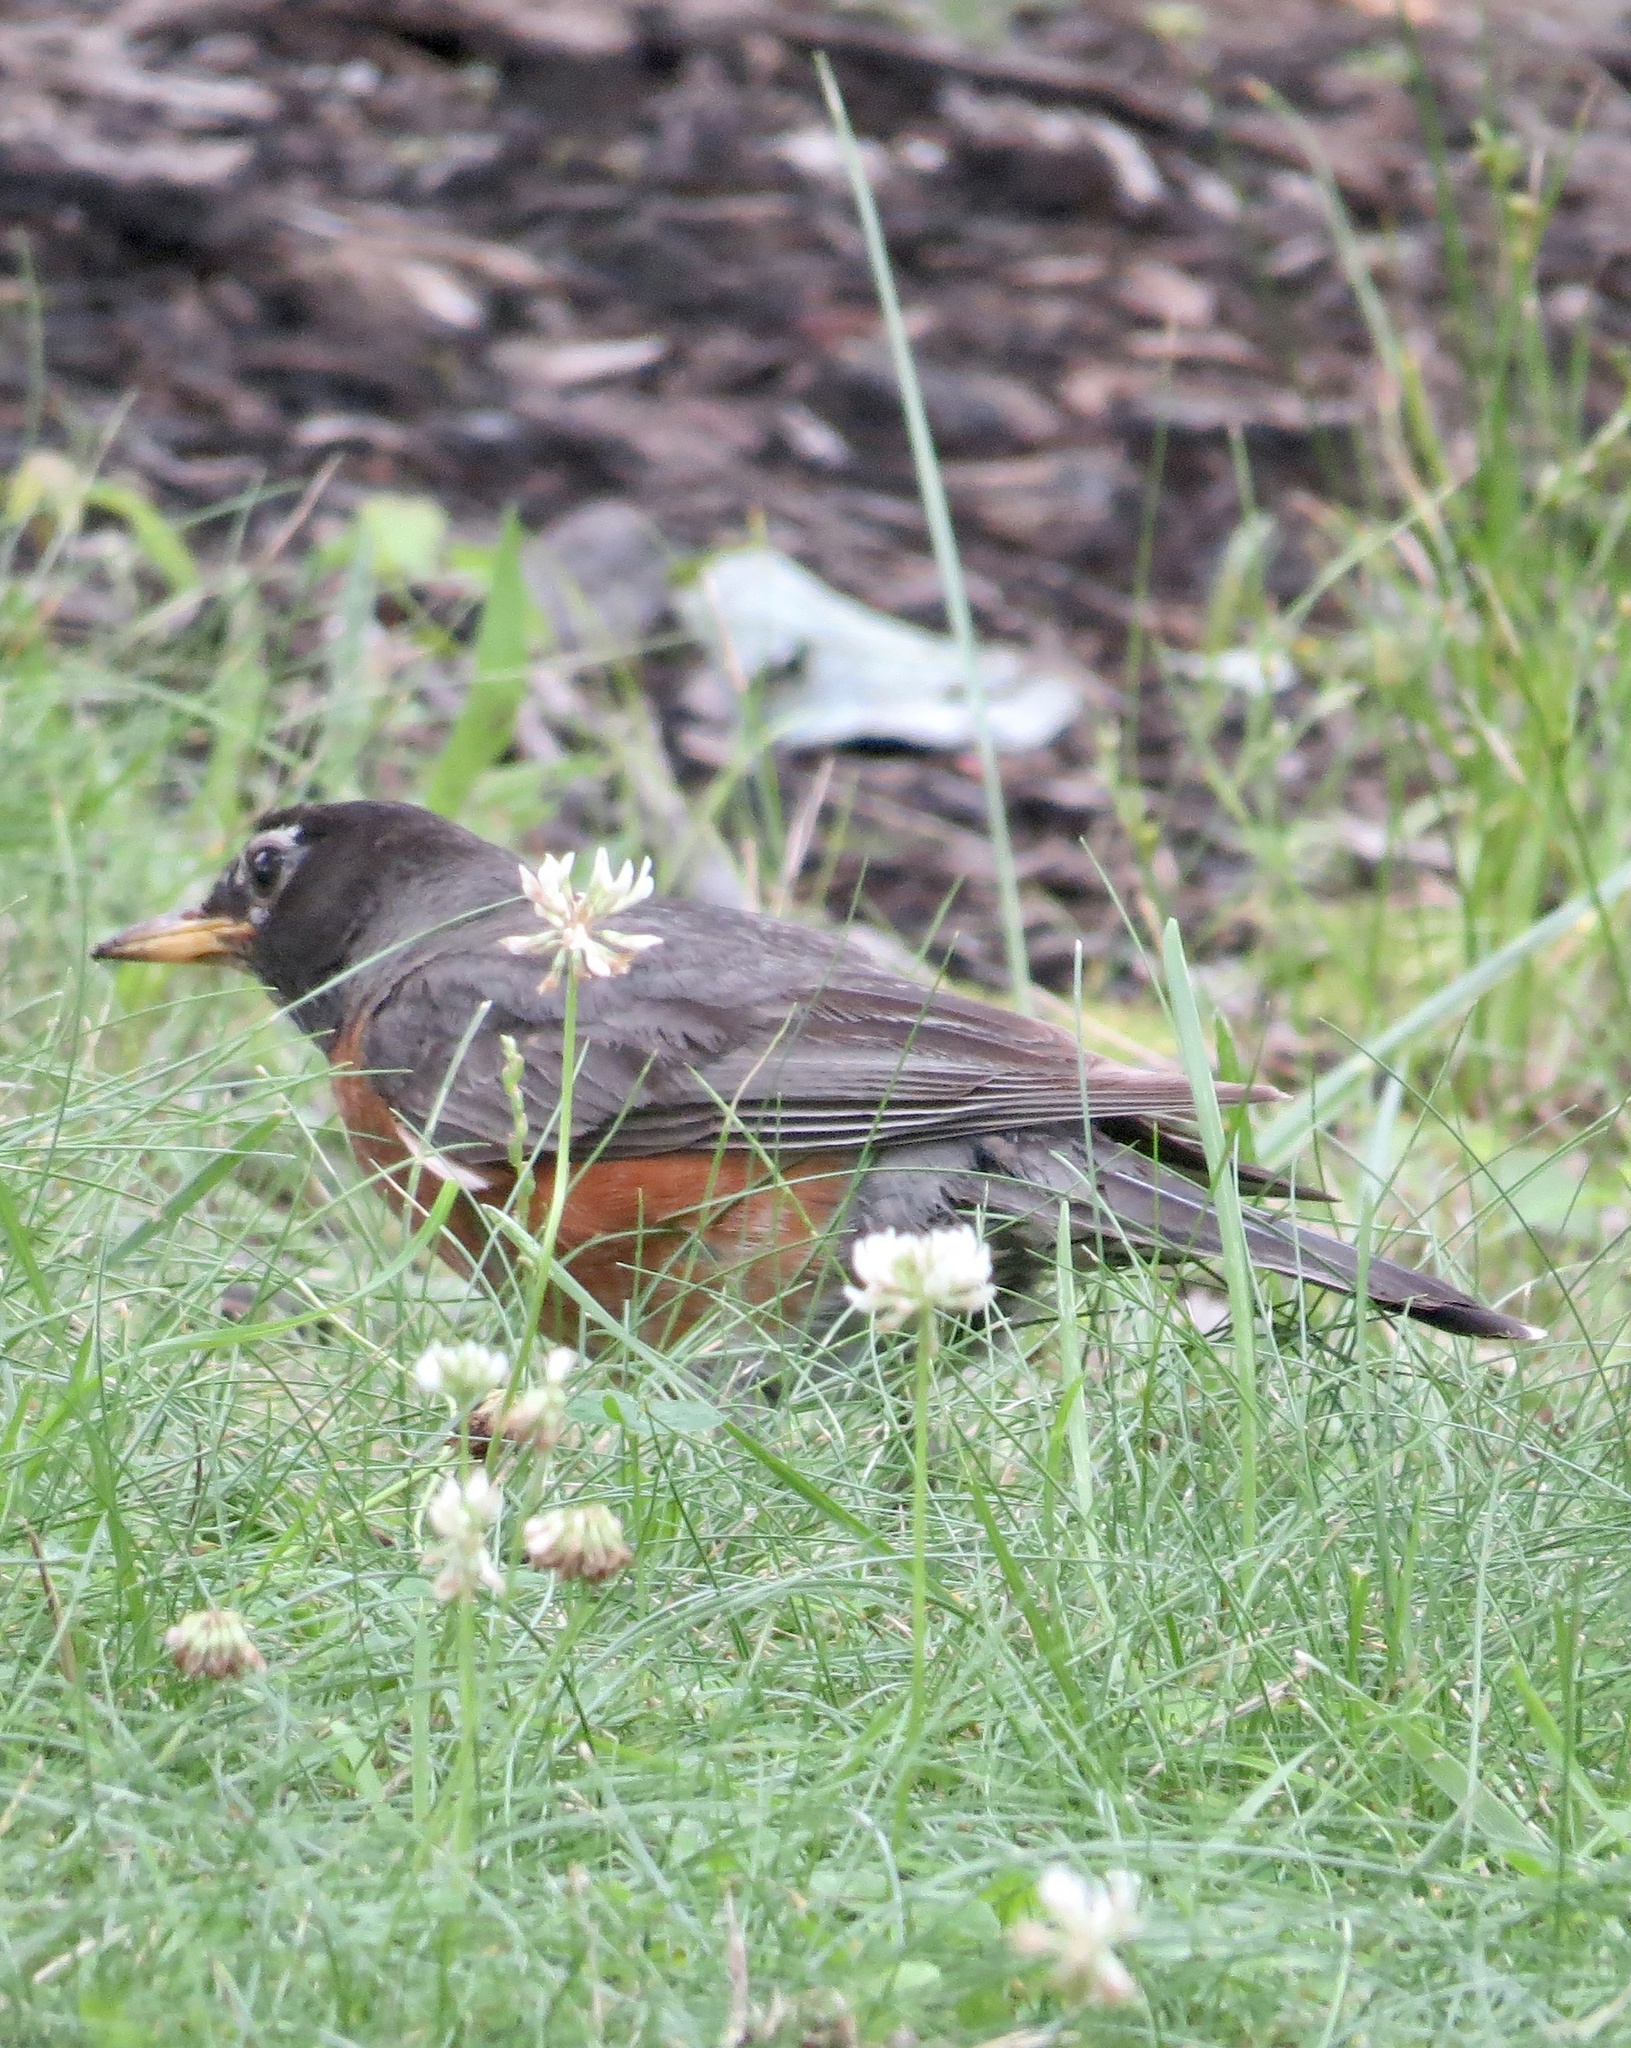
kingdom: Animalia
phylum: Chordata
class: Aves
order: Passeriformes
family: Turdidae
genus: Turdus
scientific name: Turdus migratorius
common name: American robin
